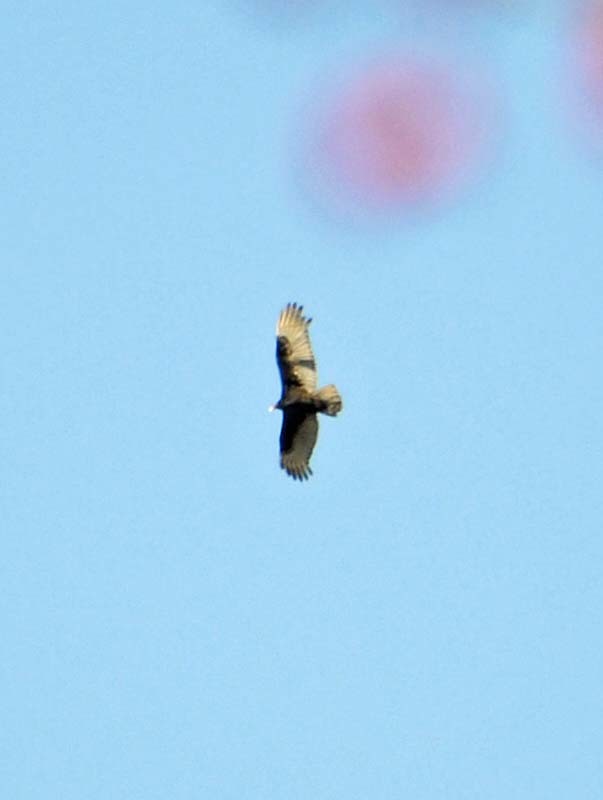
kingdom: Animalia
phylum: Chordata
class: Aves
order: Accipitriformes
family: Cathartidae
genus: Cathartes
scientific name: Cathartes aura
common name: Turkey vulture
